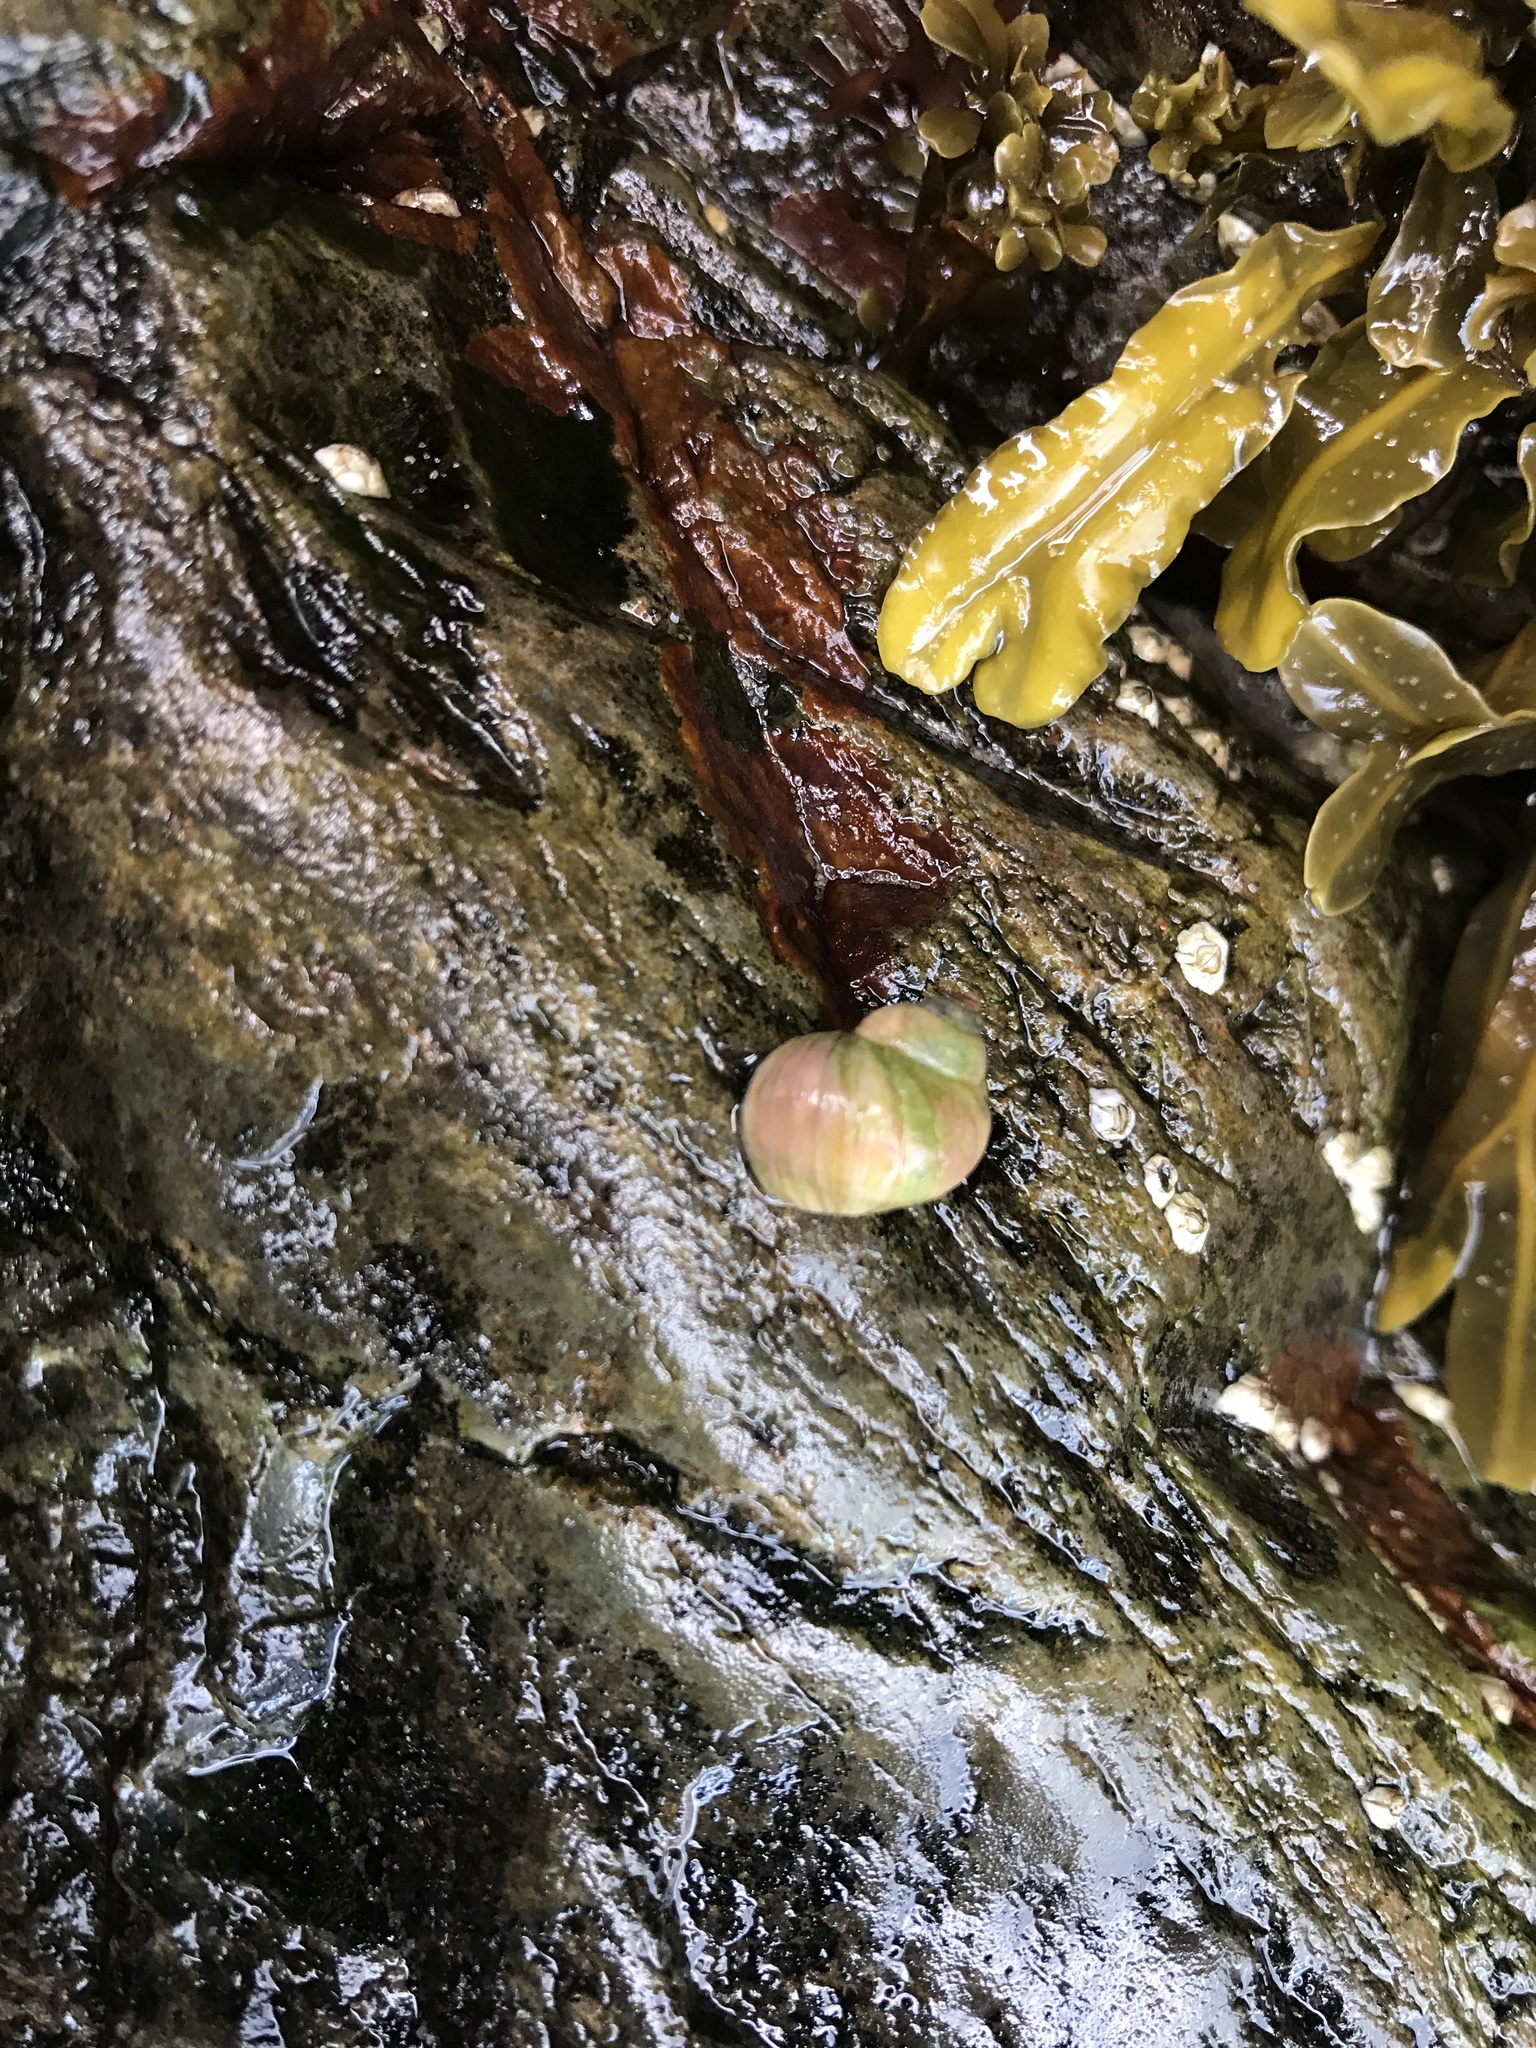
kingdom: Animalia
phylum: Mollusca
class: Gastropoda
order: Littorinimorpha
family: Littorinidae
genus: Littorina
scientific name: Littorina saxatilis
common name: Black-lined periwinkle
